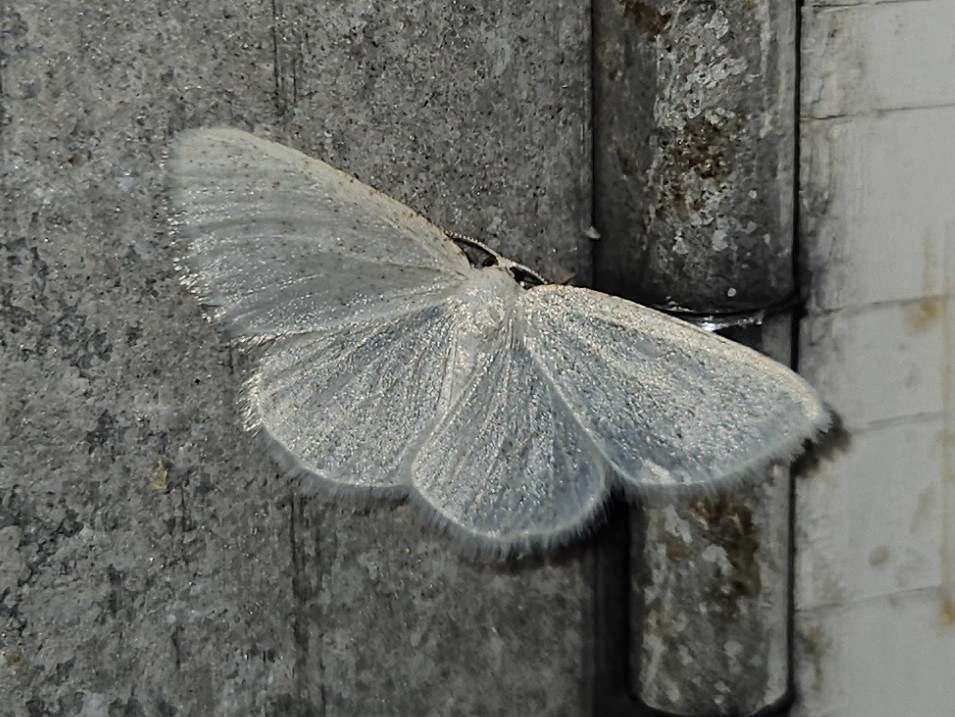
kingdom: Animalia
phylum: Arthropoda
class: Insecta
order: Lepidoptera
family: Geometridae
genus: Protitame
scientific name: Protitame virginalis
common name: Virgin moth
